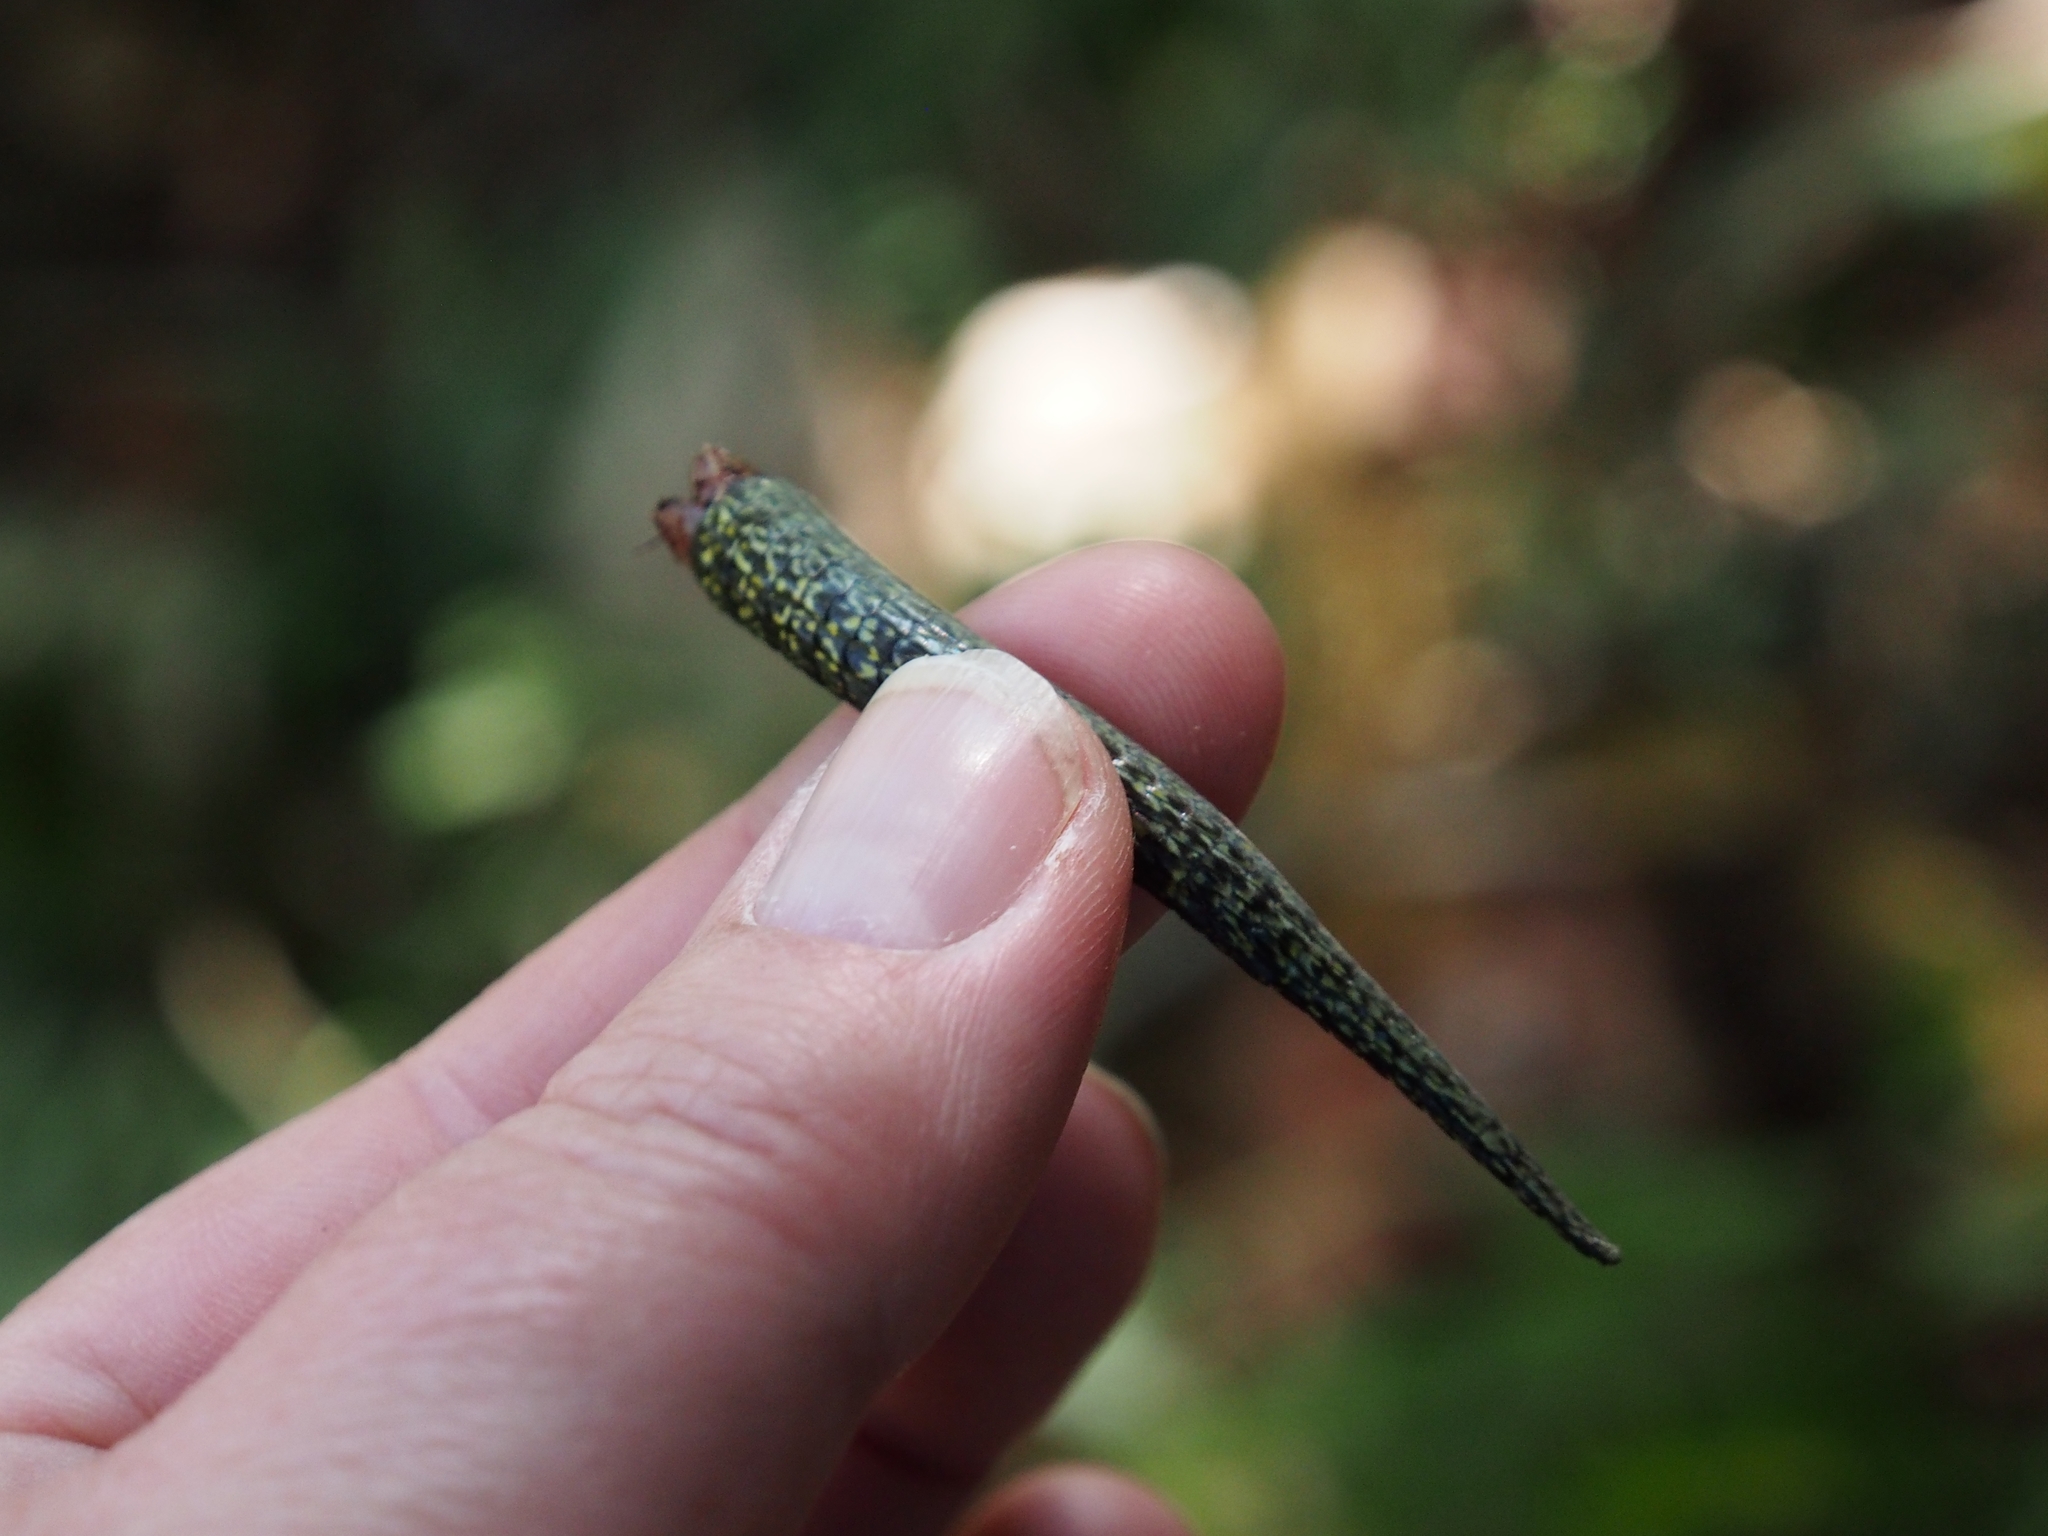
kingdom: Animalia
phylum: Chordata
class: Squamata
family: Anguidae
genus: Abronia
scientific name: Abronia monticola
